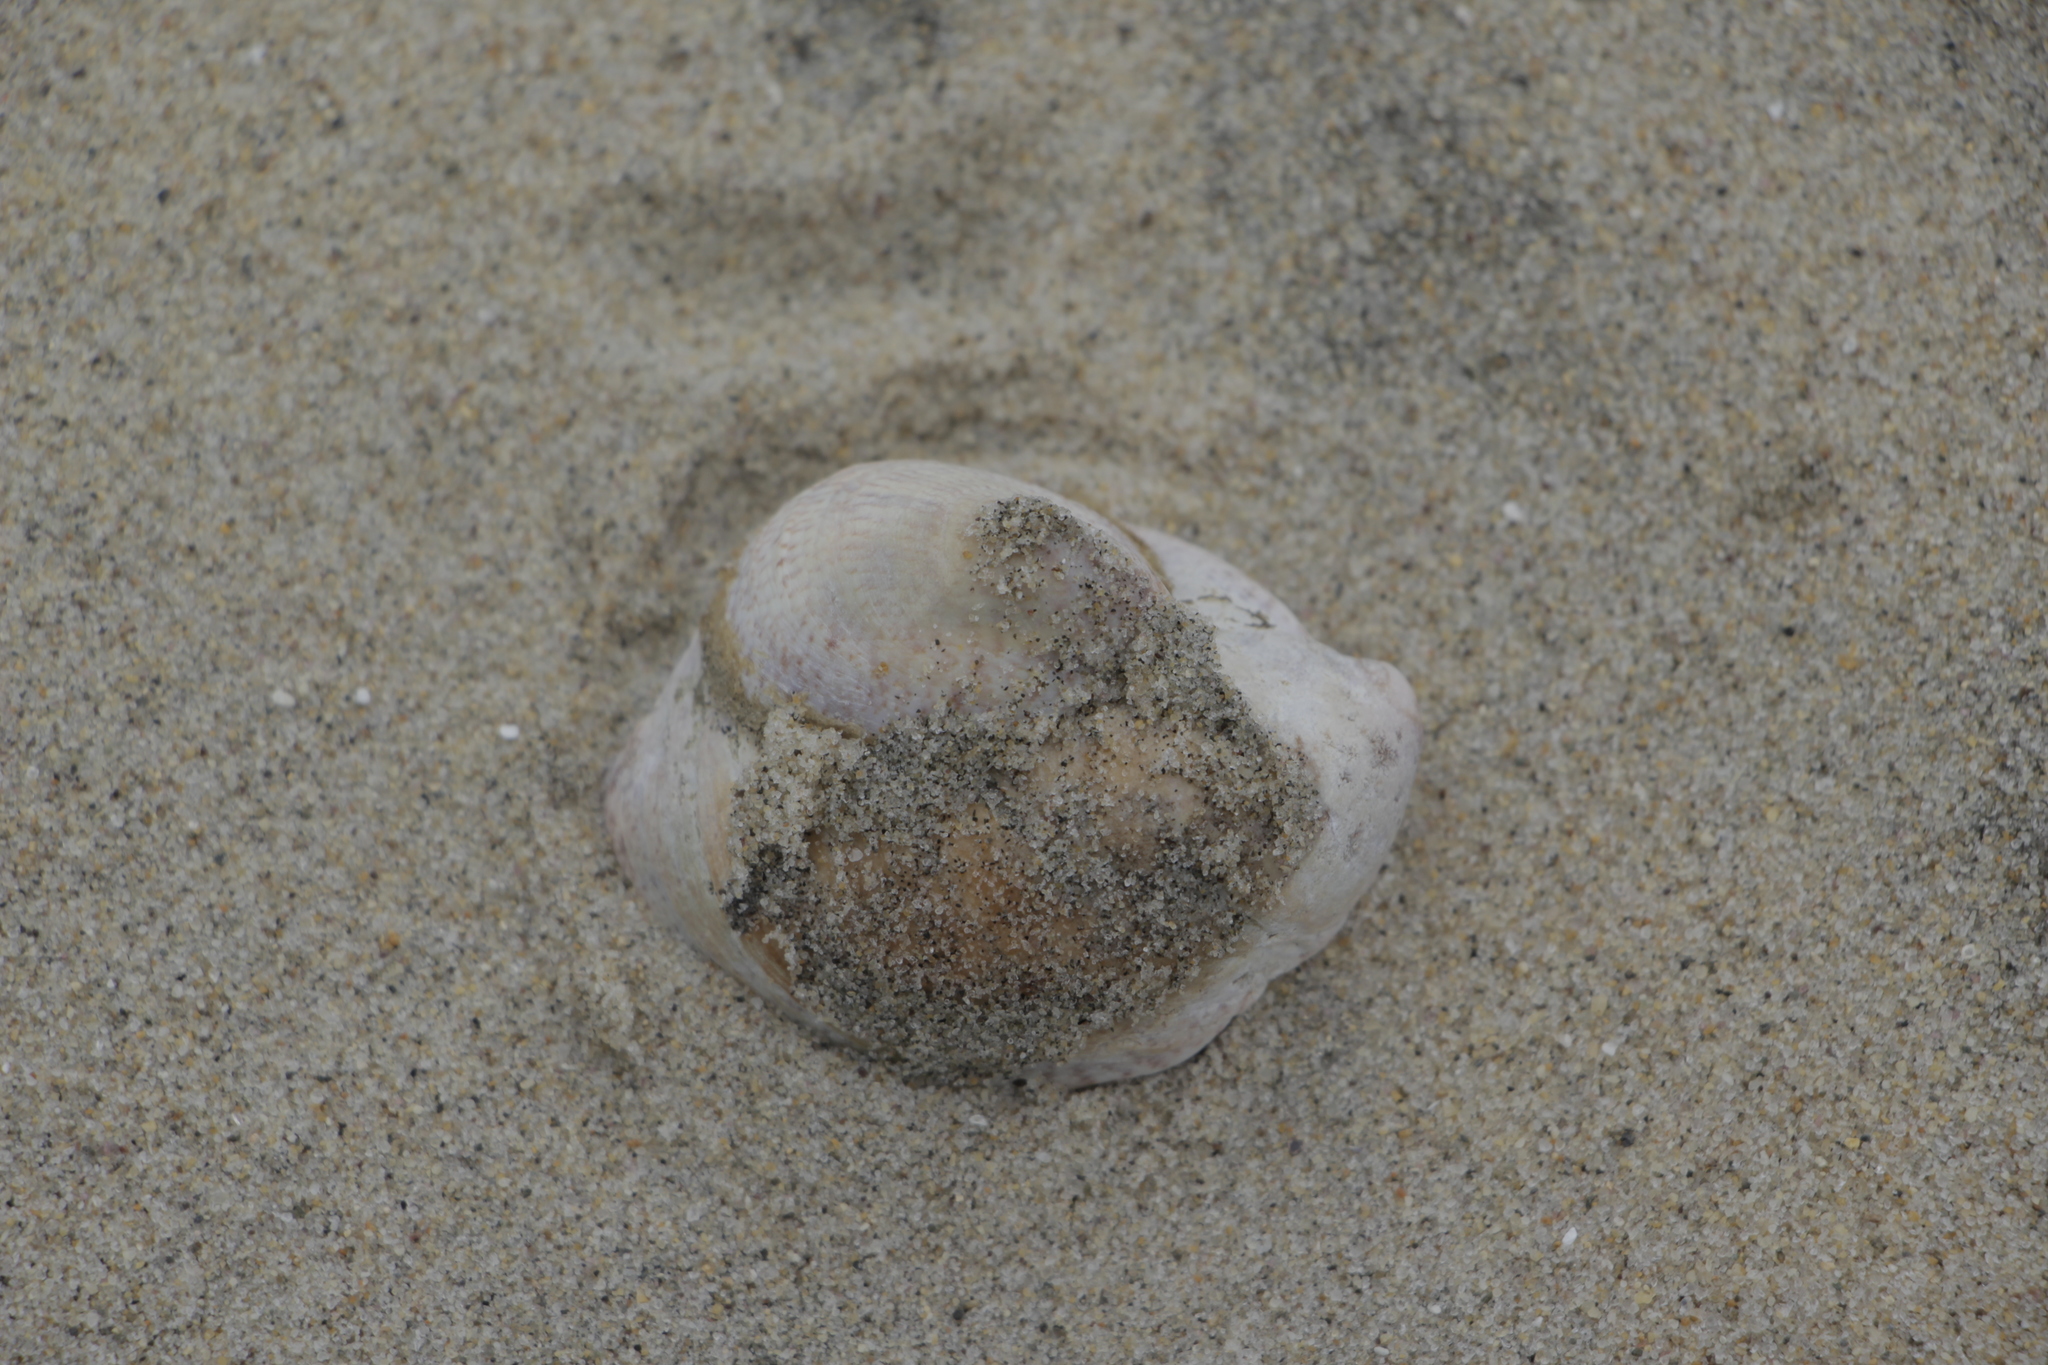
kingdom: Animalia
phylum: Mollusca
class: Gastropoda
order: Littorinimorpha
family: Calyptraeidae
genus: Crepidula
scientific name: Crepidula fornicata
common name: Slipper limpet
